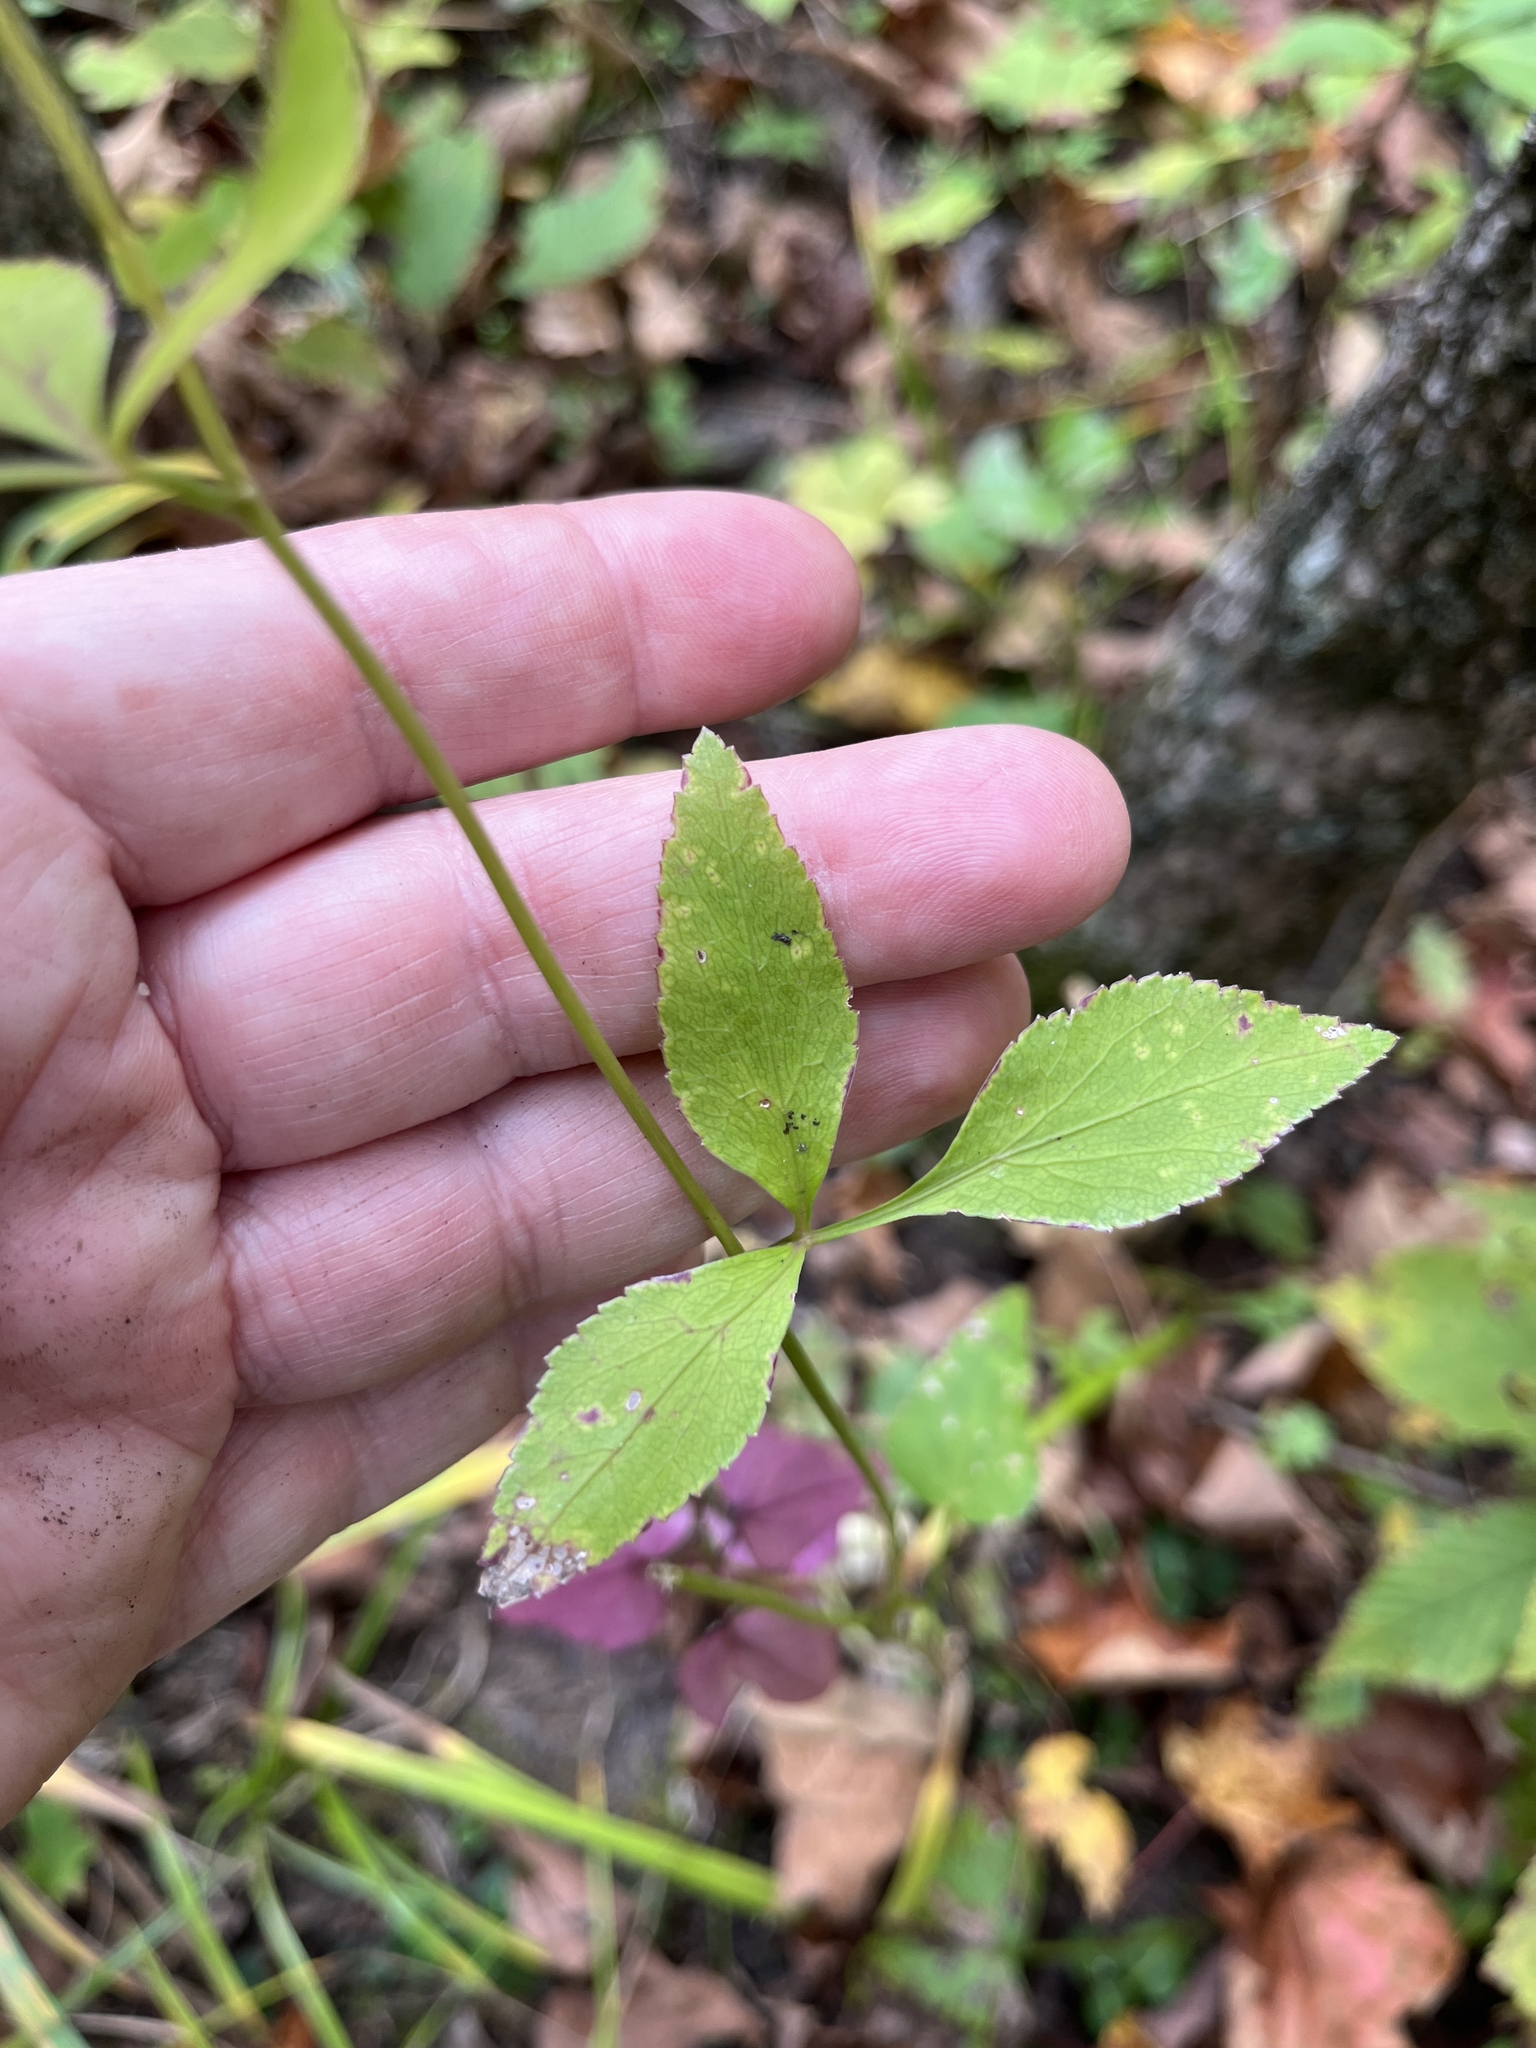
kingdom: Plantae
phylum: Tracheophyta
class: Magnoliopsida
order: Apiales
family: Apiaceae
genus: Thaspium
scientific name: Thaspium trifoliatum
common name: Purple meadow-parsnip
